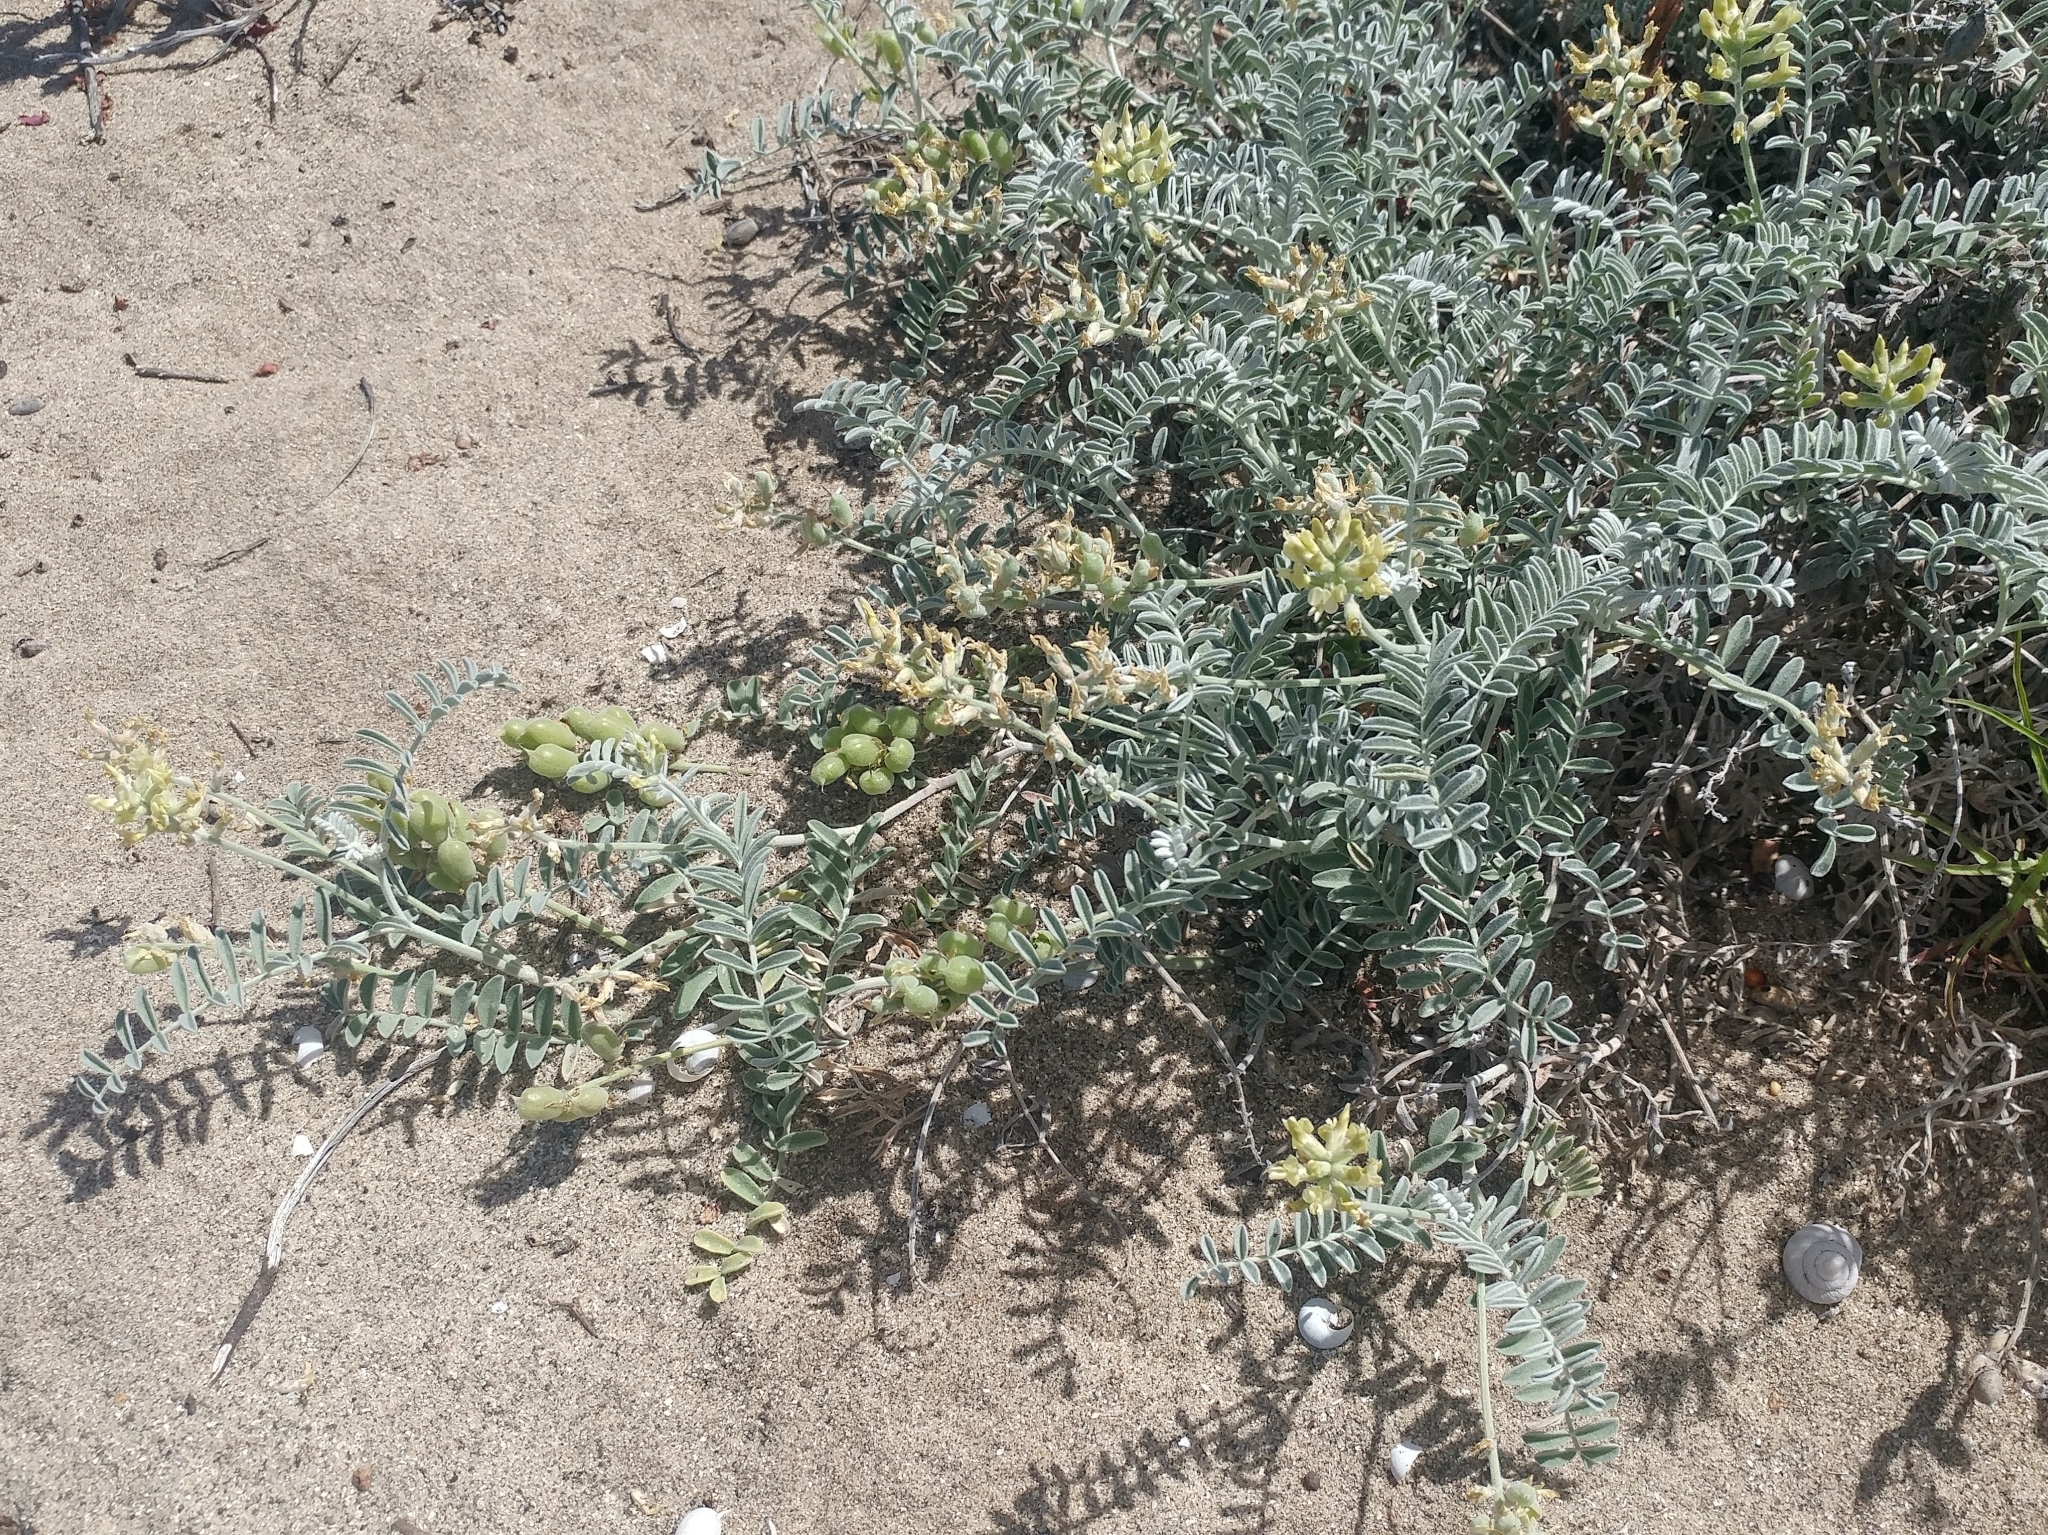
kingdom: Plantae
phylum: Tracheophyta
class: Magnoliopsida
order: Fabales
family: Fabaceae
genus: Astragalus
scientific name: Astragalus miguelensis
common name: San miguel milk-vetch
